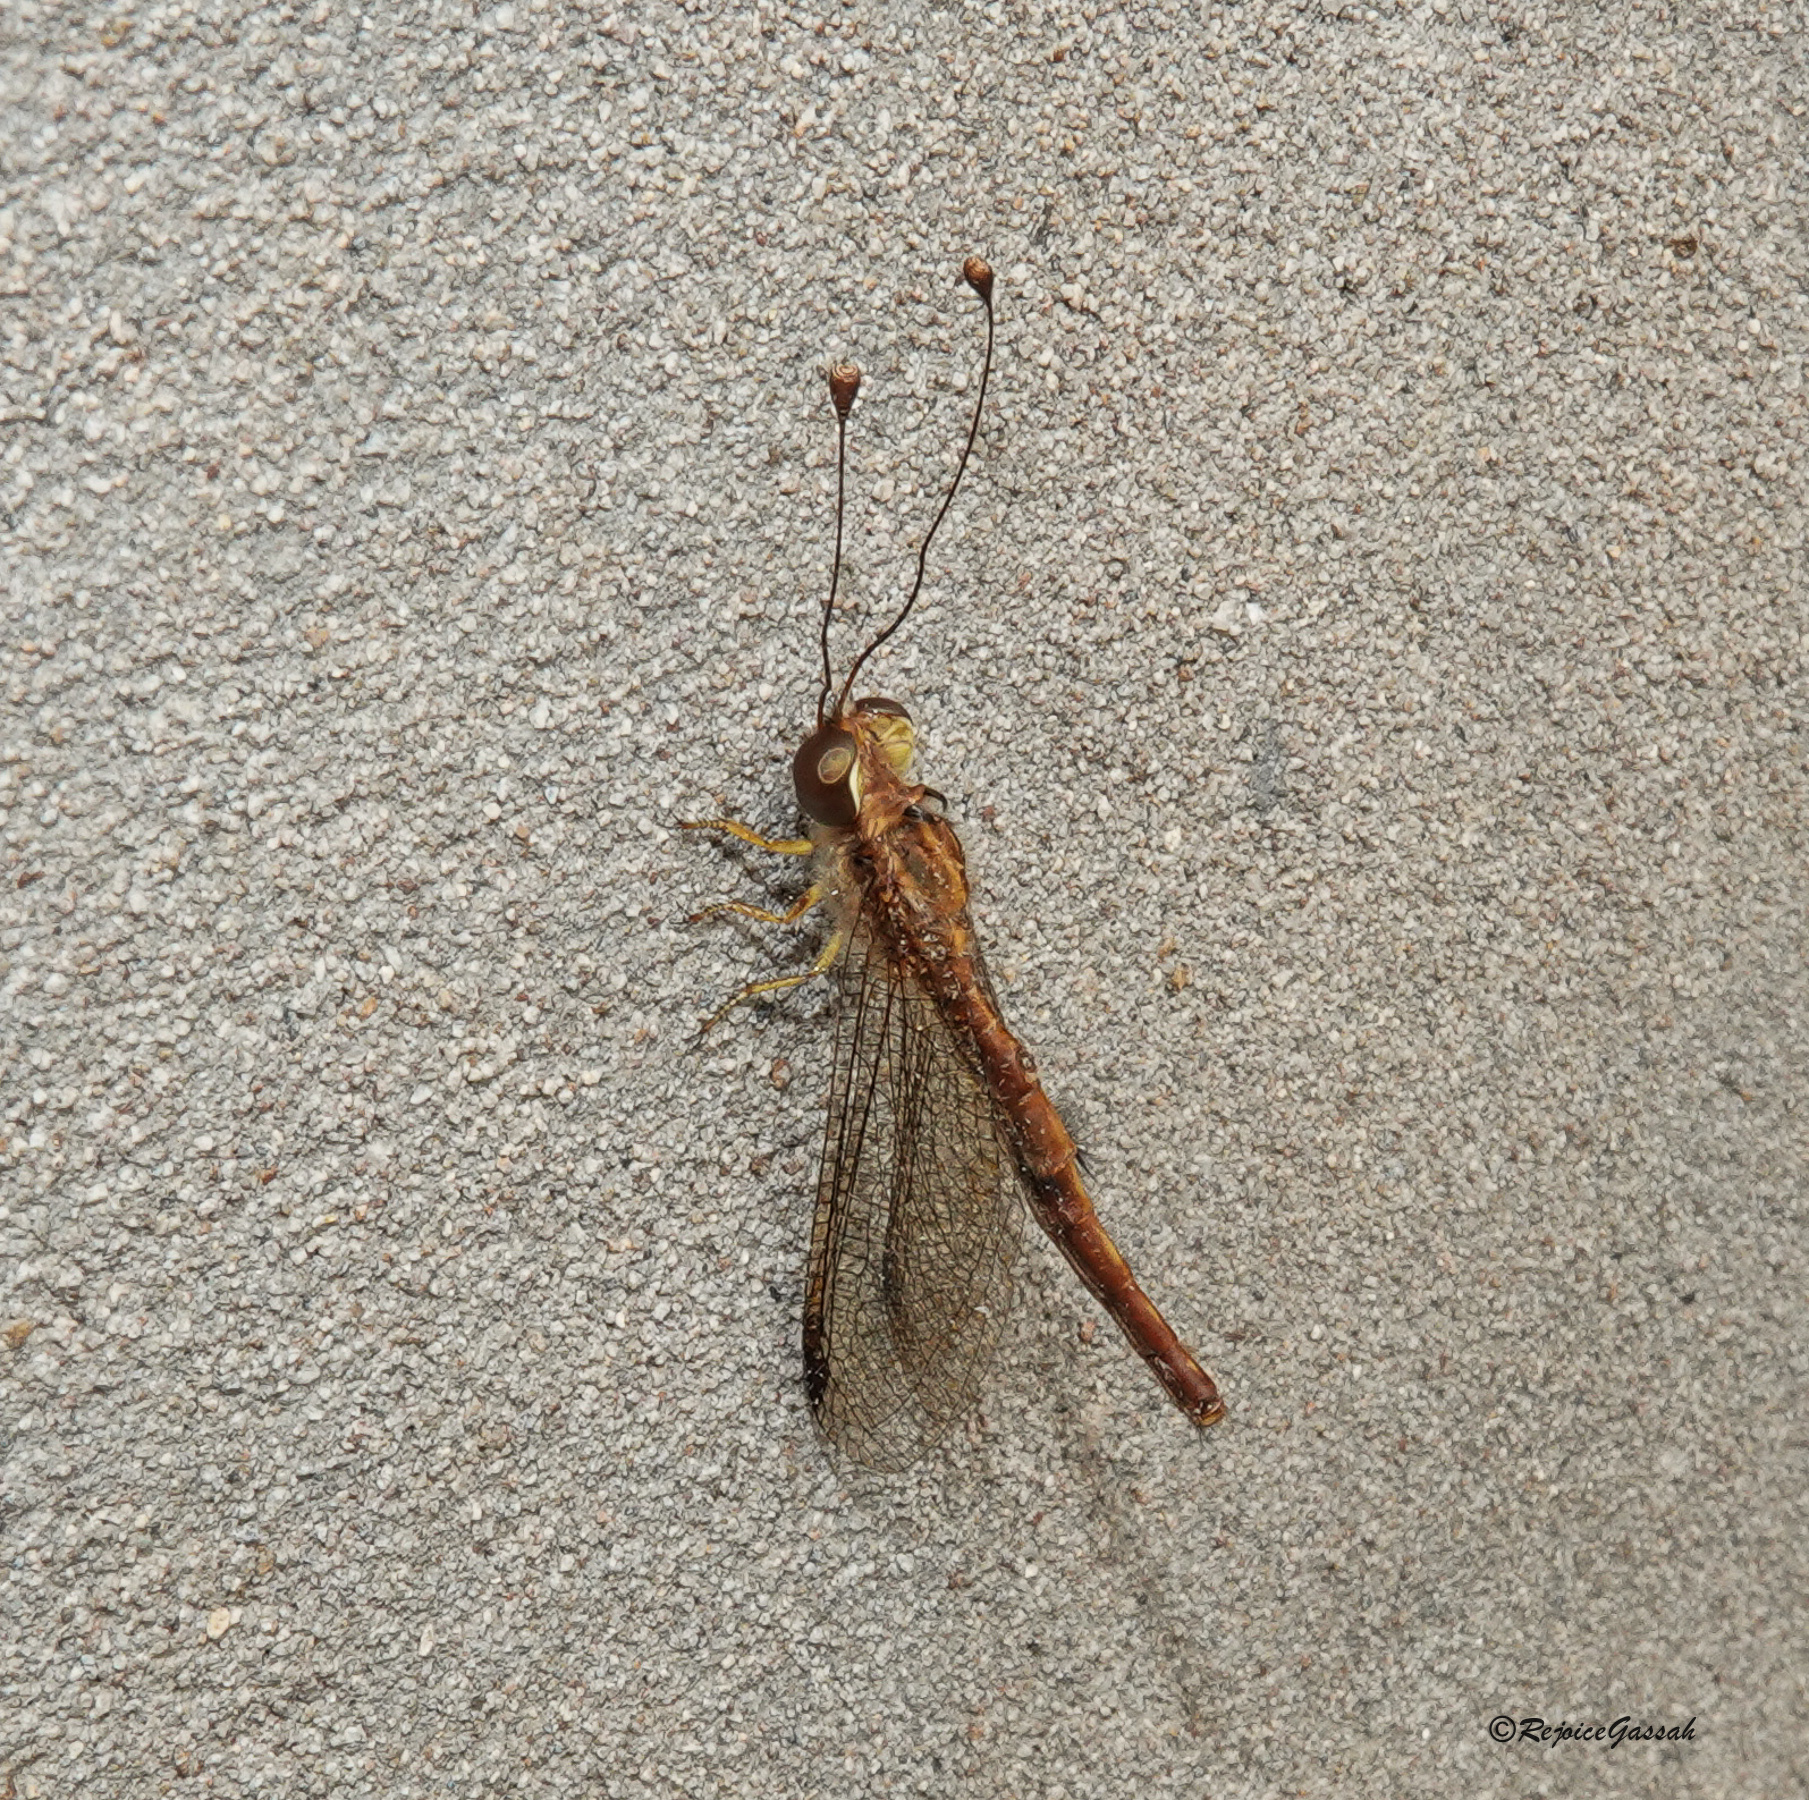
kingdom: Animalia
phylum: Arthropoda
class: Insecta
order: Neuroptera
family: Ascalaphidae
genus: Suhpalacsa
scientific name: Suhpalacsa flavipes
